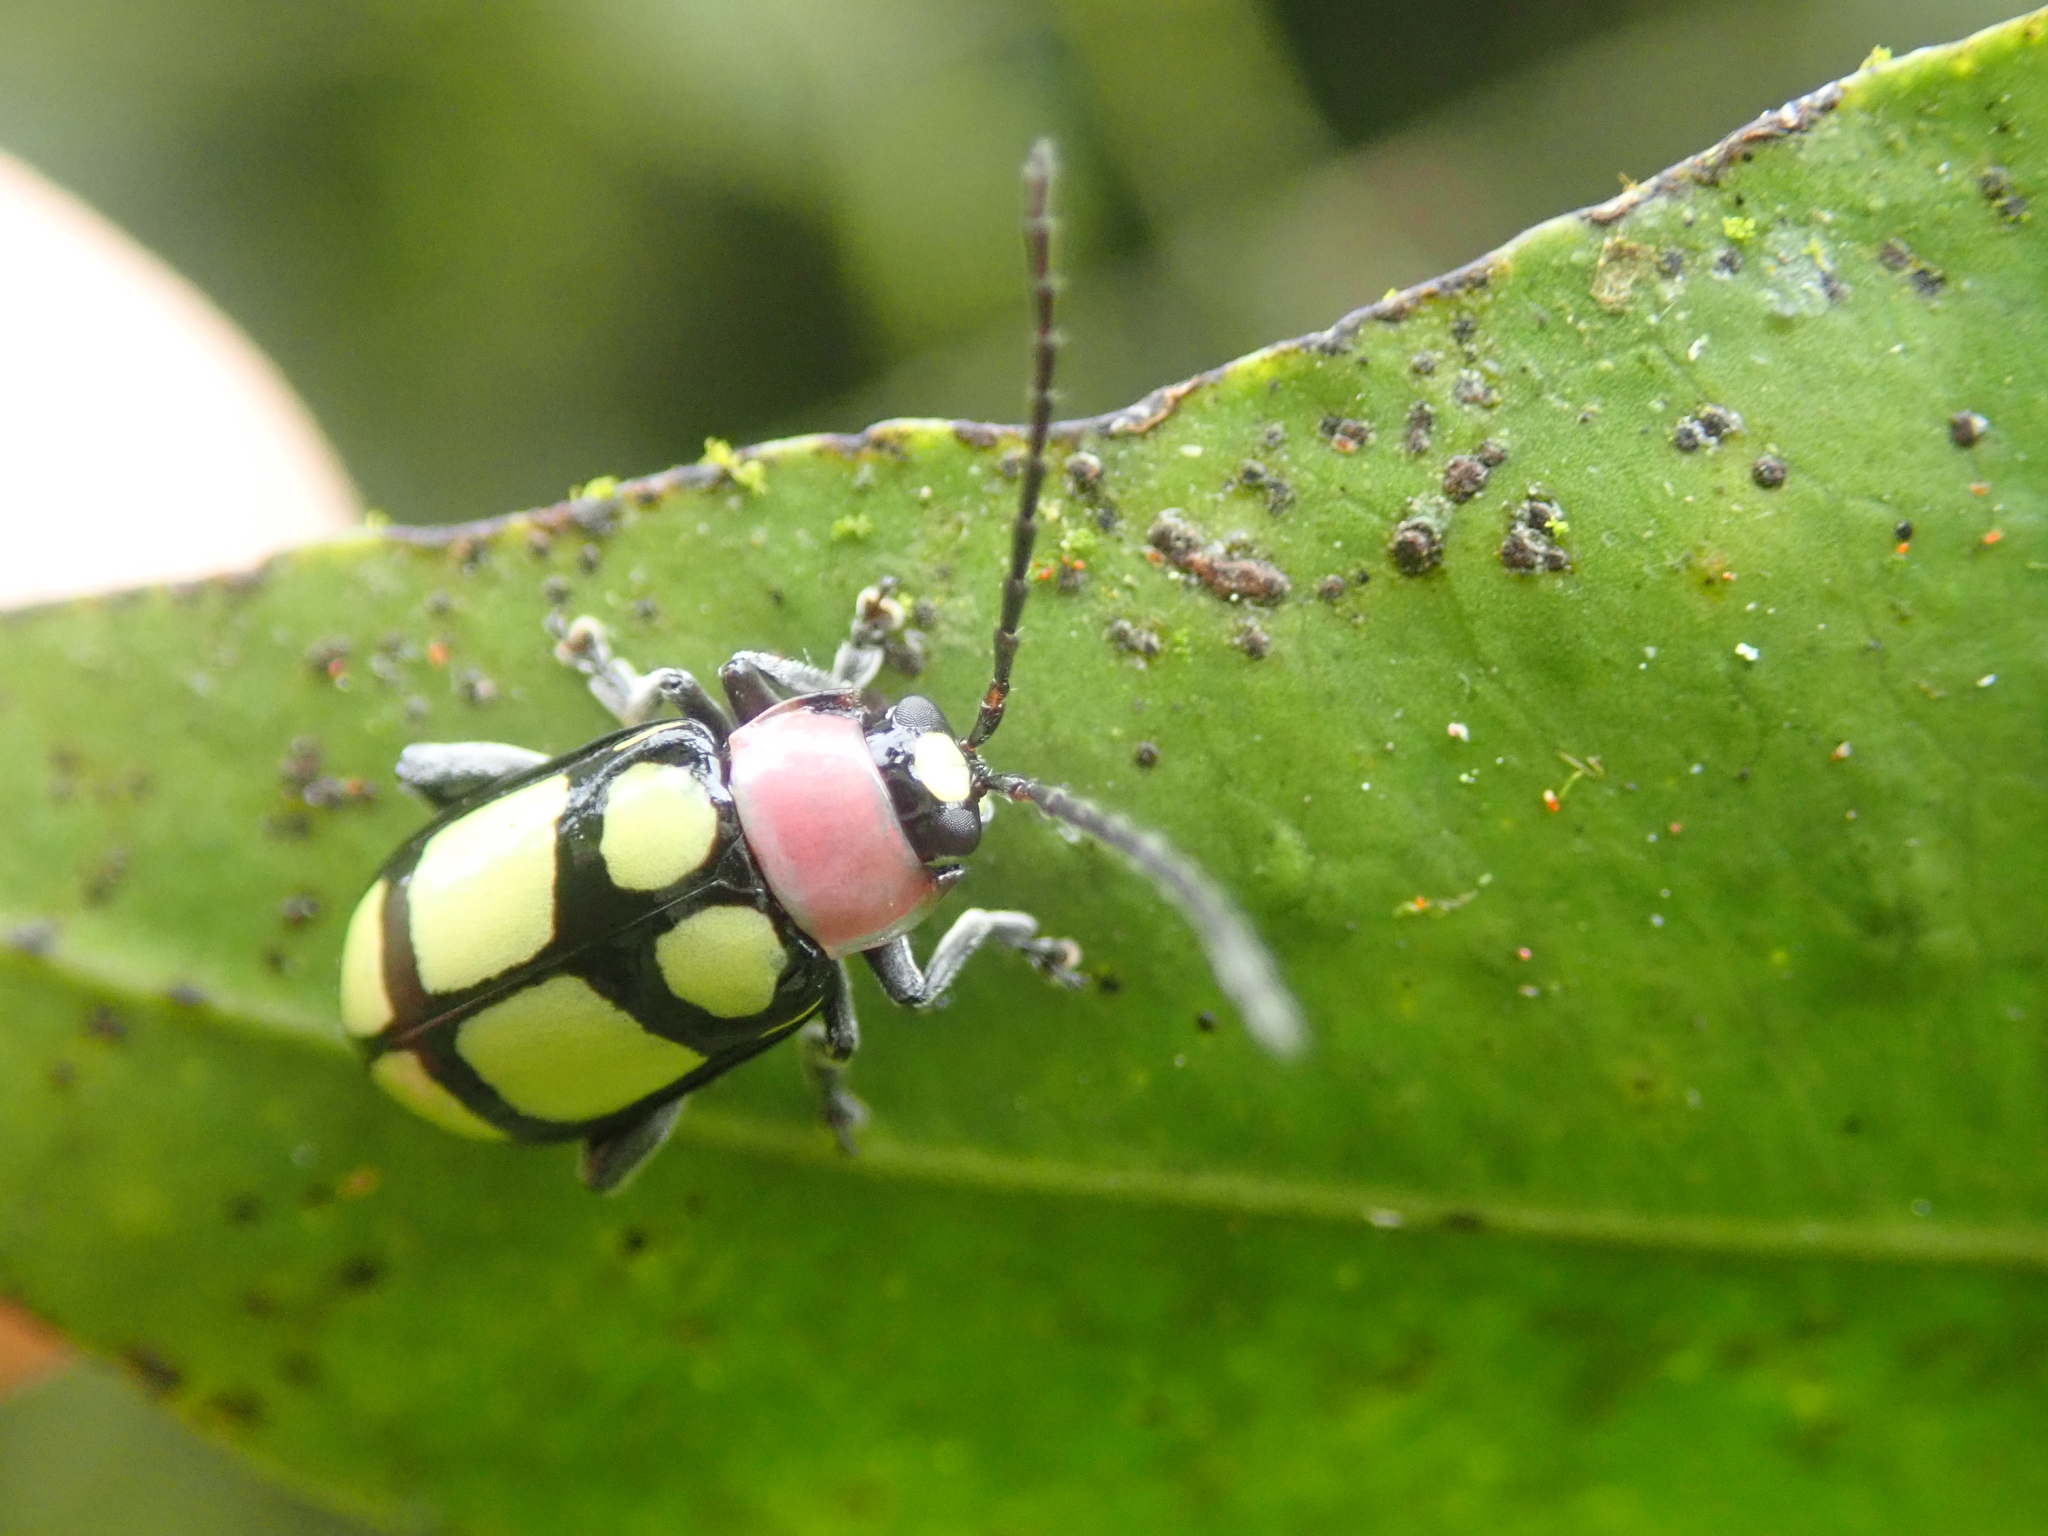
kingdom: Animalia
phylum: Arthropoda
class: Insecta
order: Coleoptera
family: Chrysomelidae
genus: Omophoita
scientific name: Omophoita
